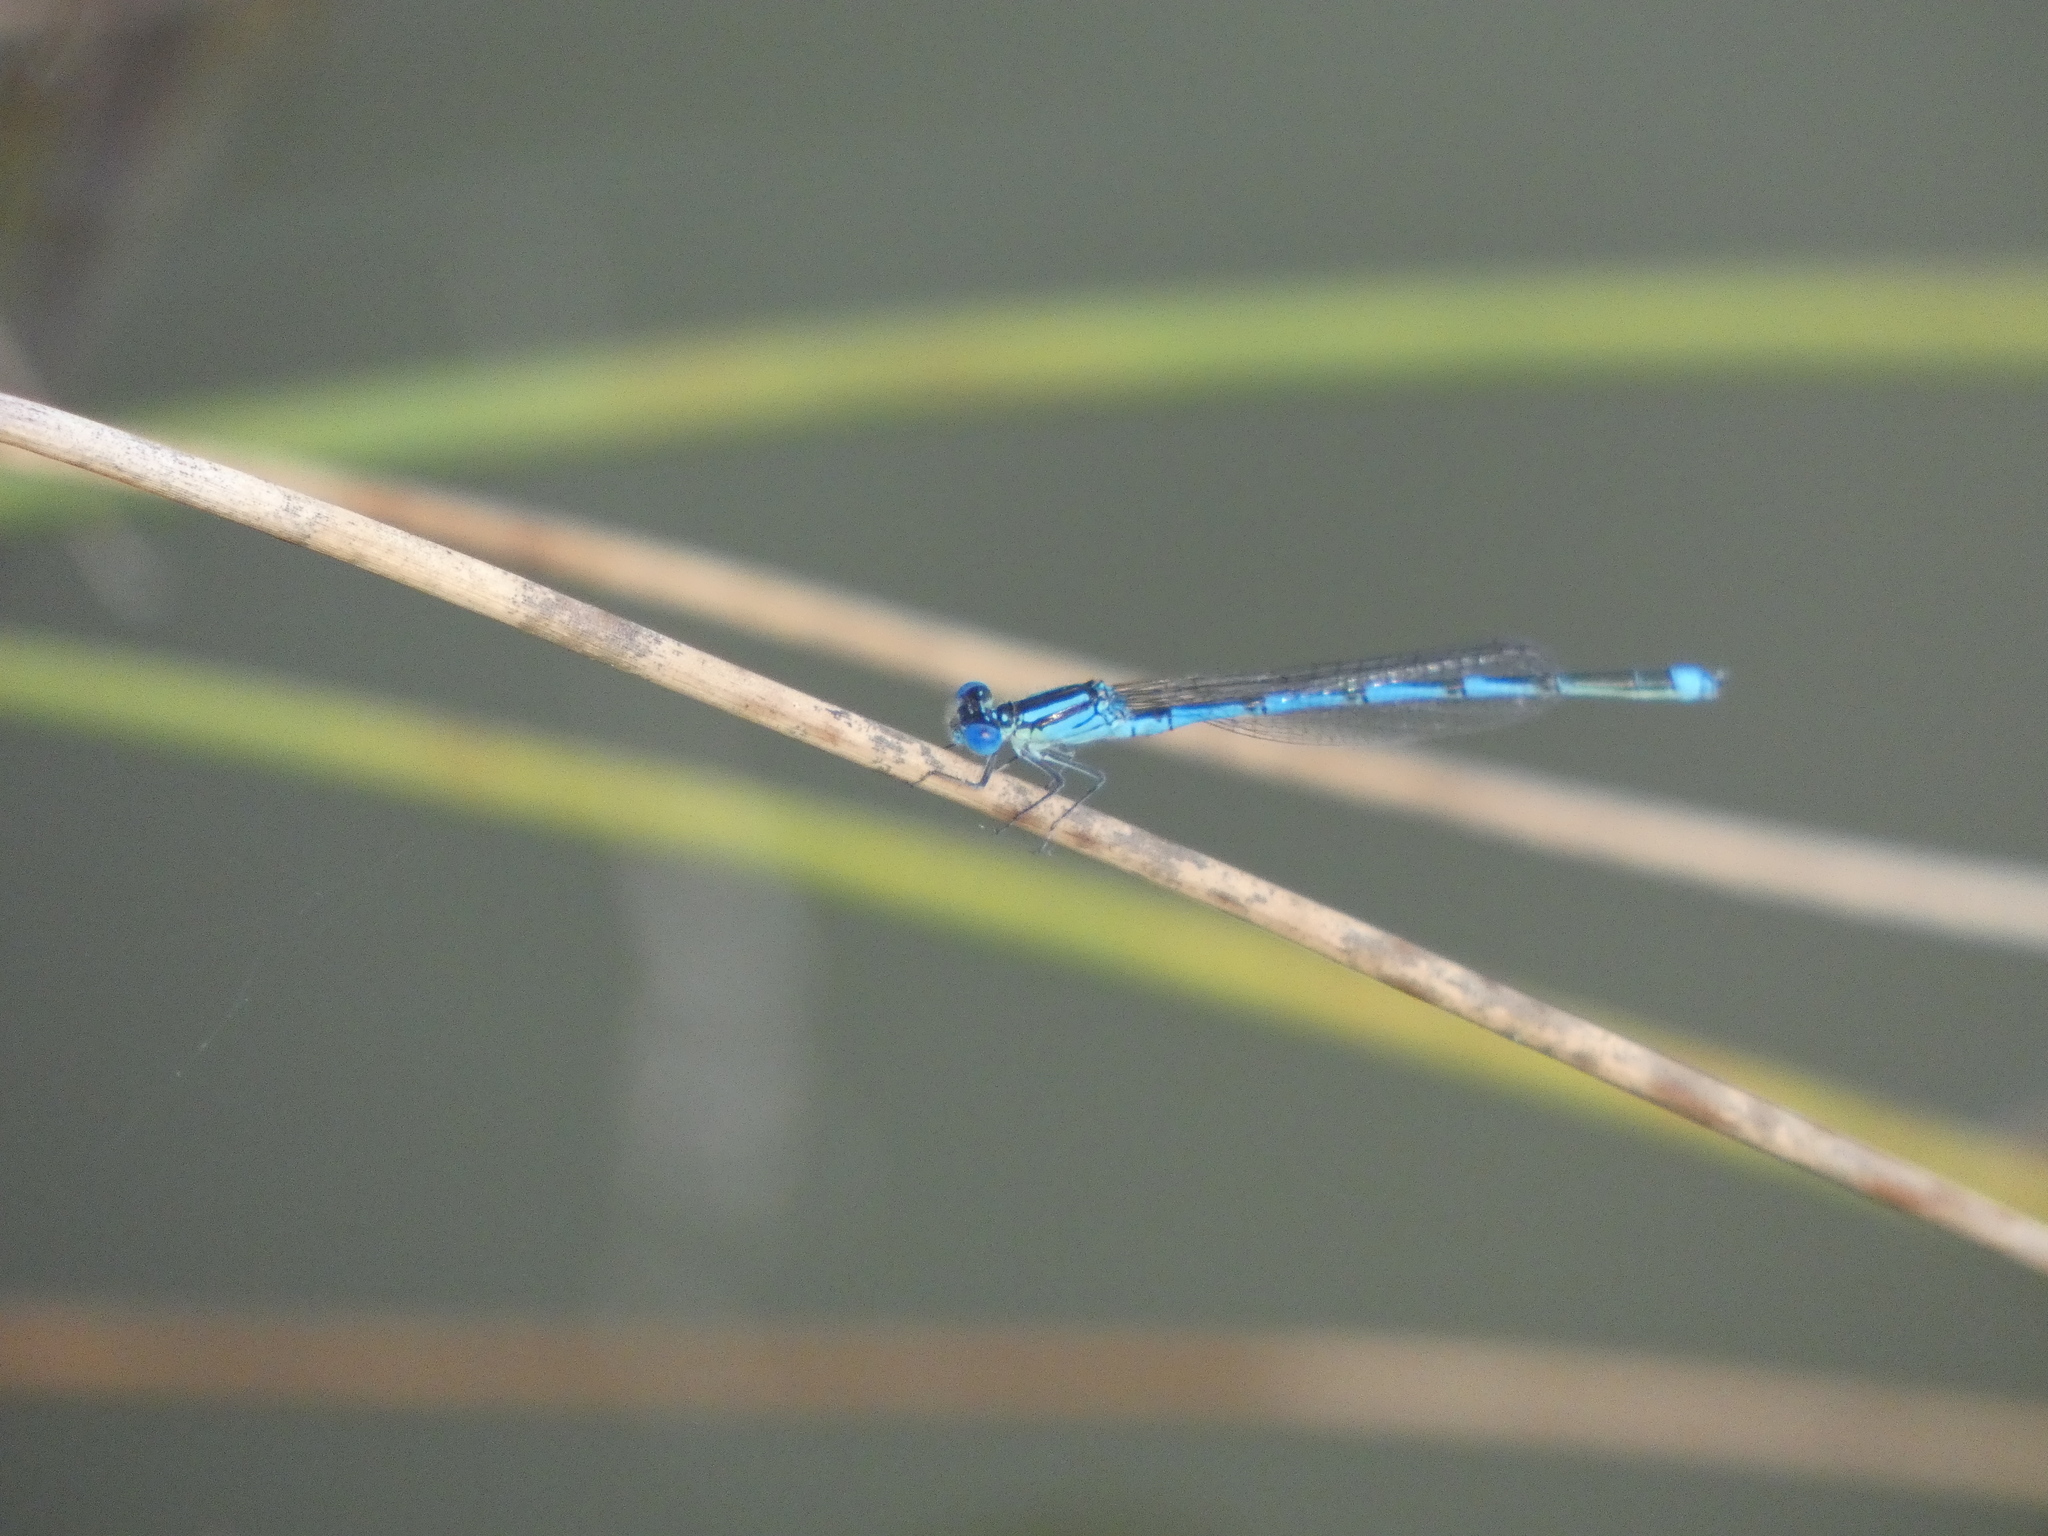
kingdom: Animalia
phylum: Arthropoda
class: Insecta
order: Odonata
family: Coenagrionidae
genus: Erythromma
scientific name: Erythromma lindenii
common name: Blue-eye
